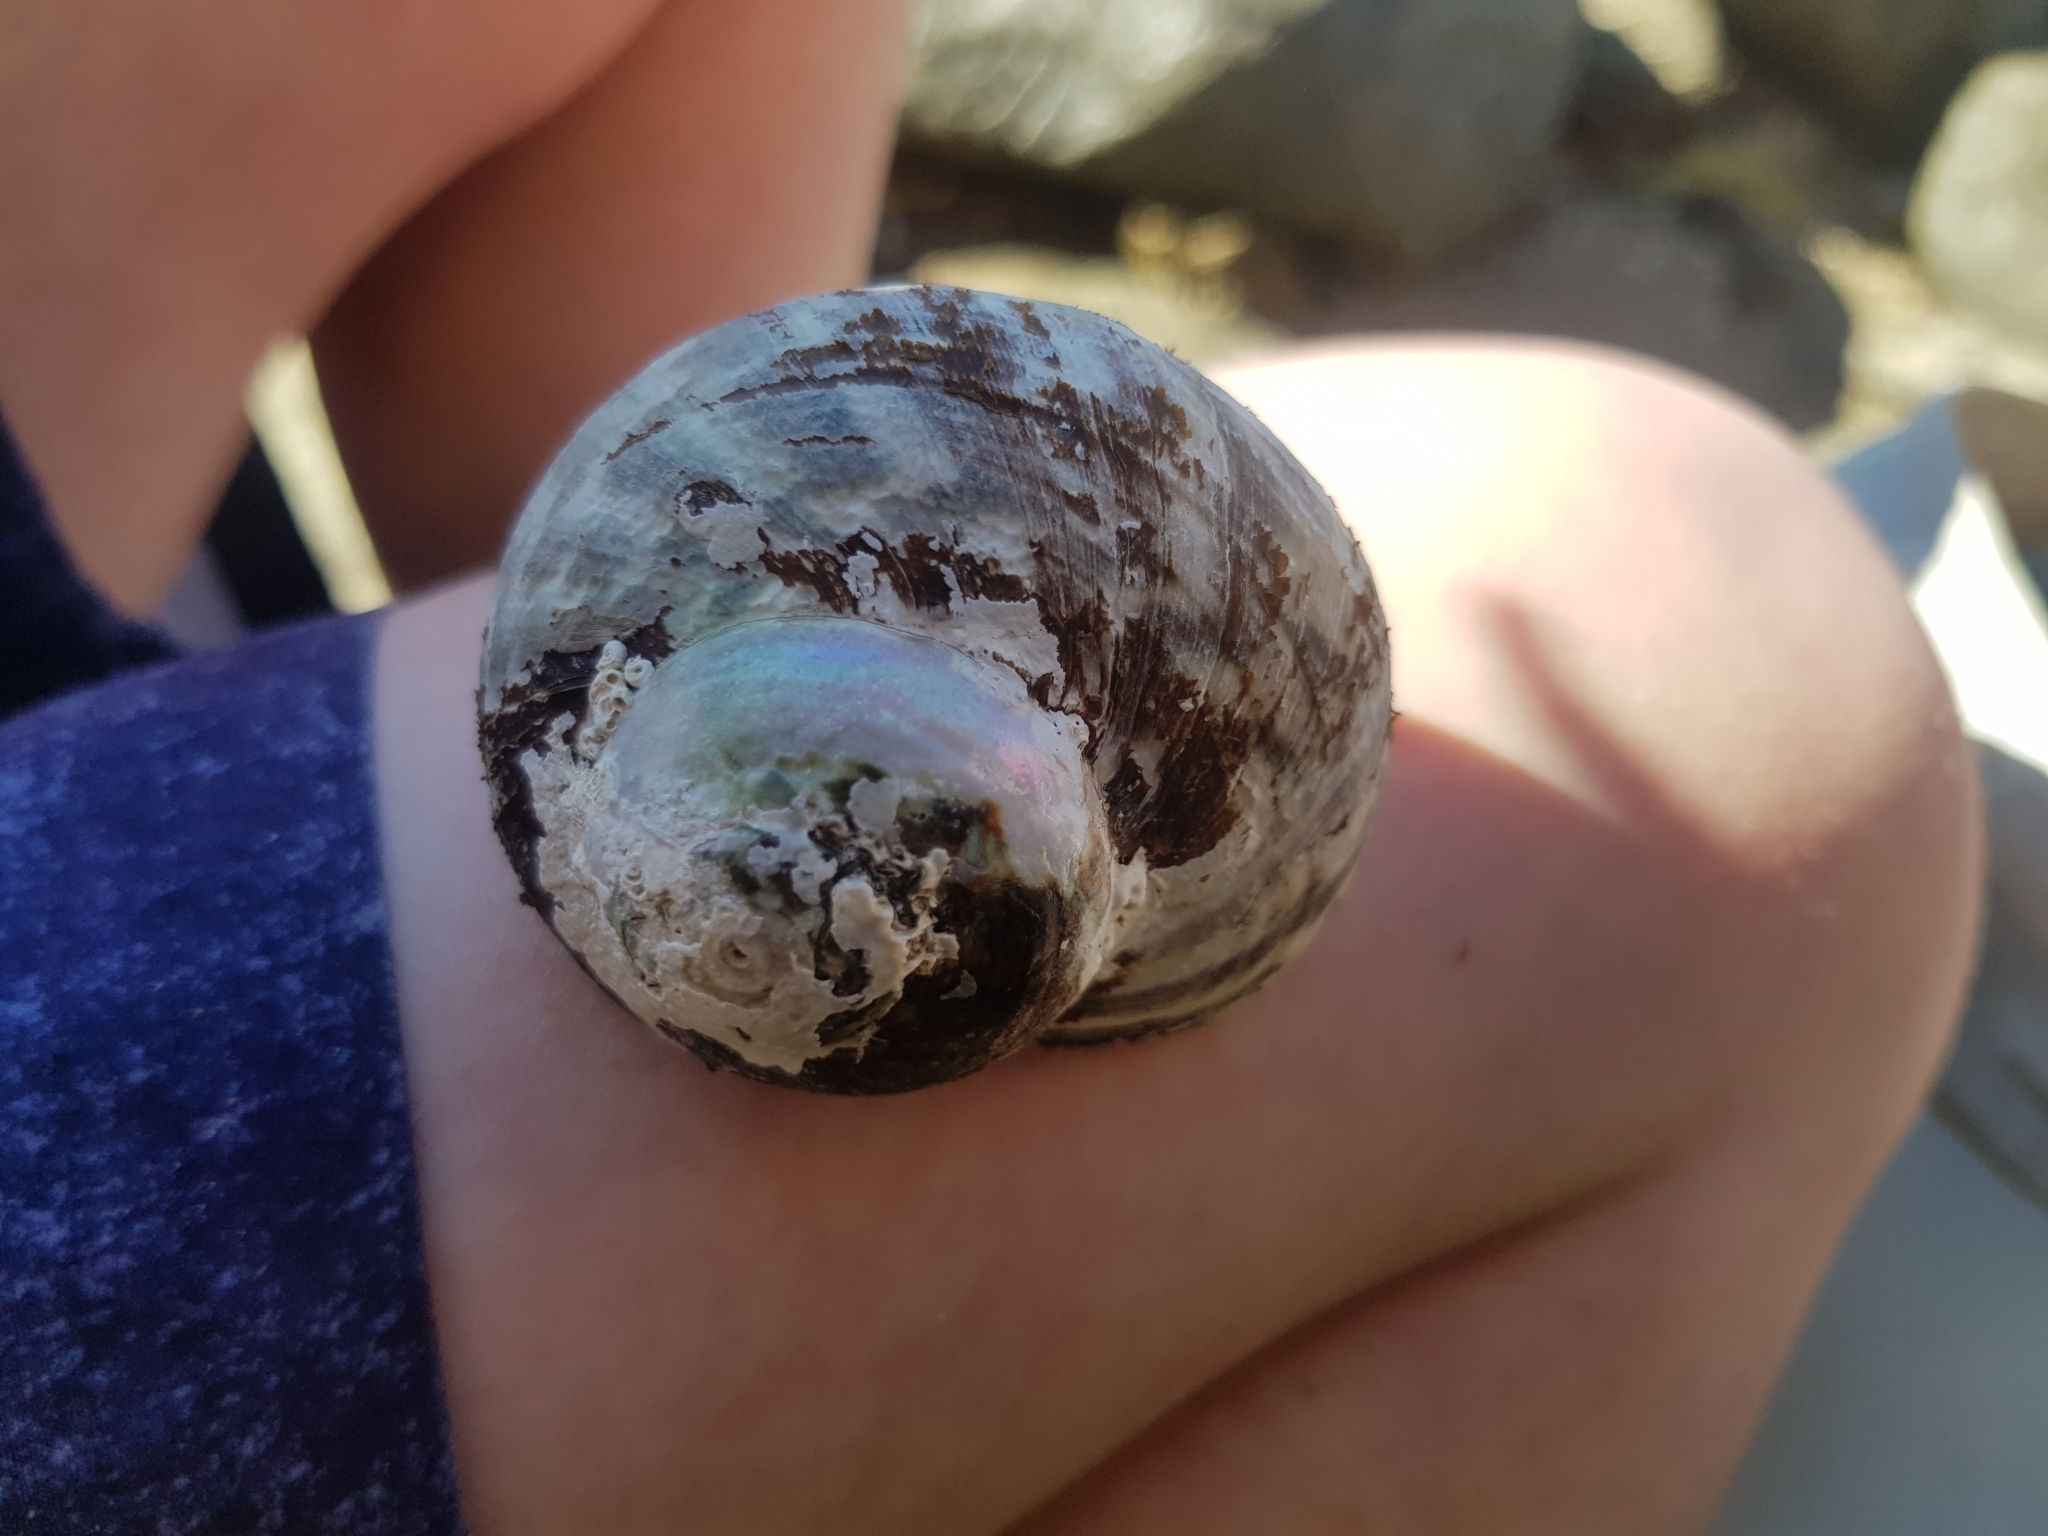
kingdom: Animalia
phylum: Mollusca
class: Gastropoda
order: Trochida
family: Turbinidae
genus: Lunella
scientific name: Lunella undulata
